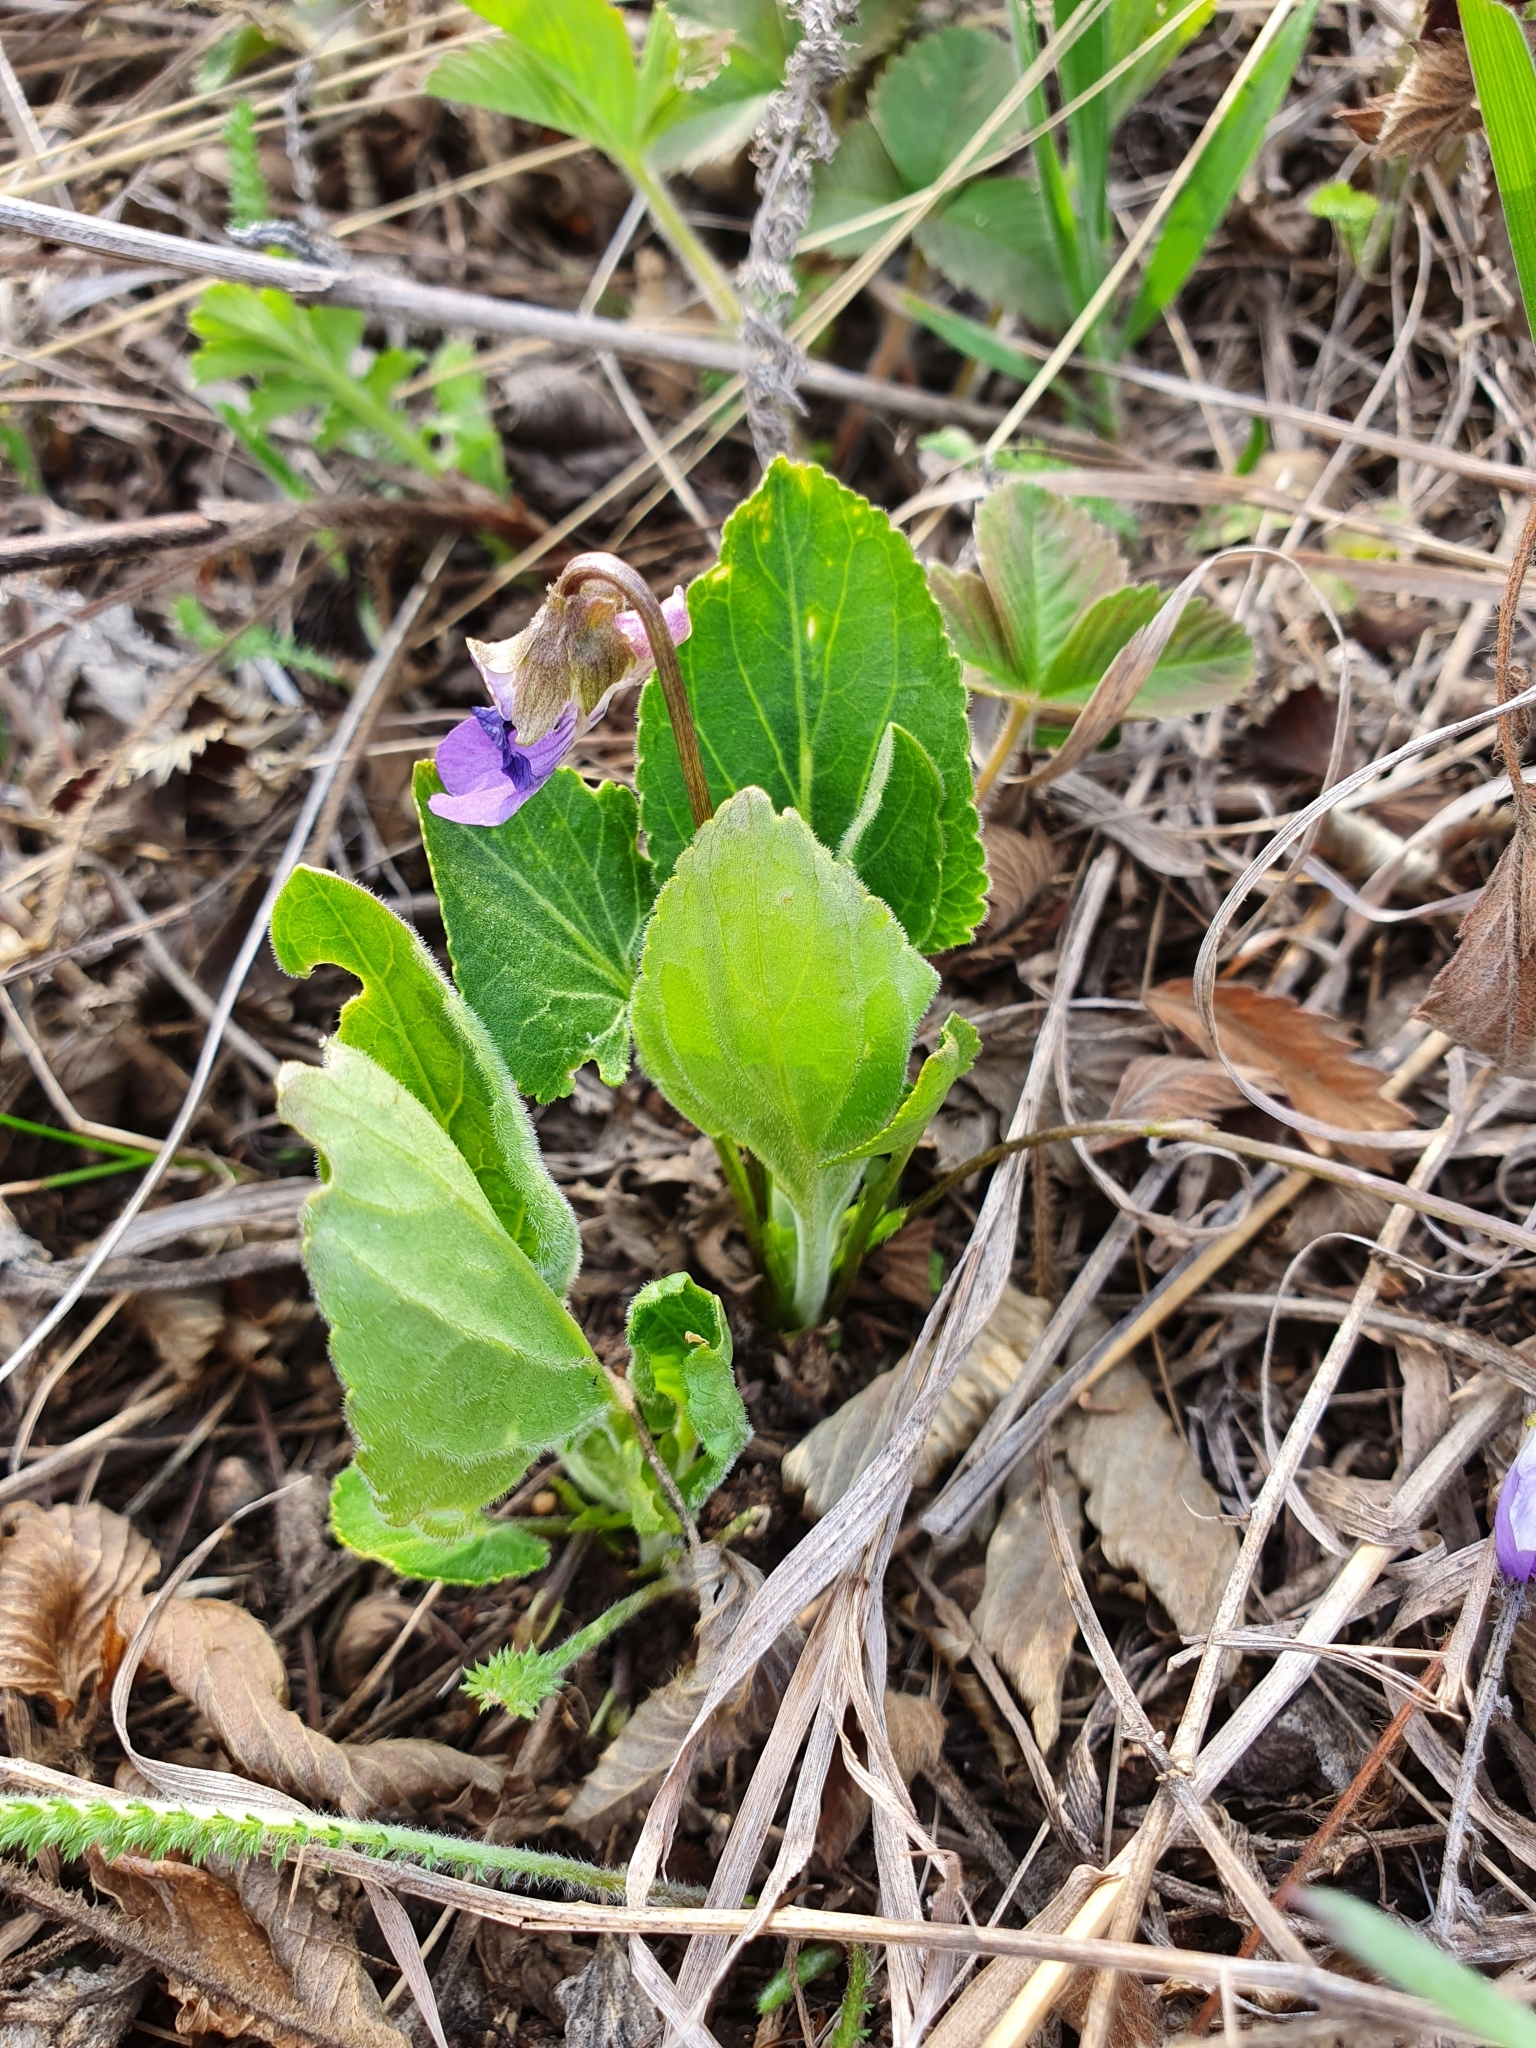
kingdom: Plantae
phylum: Tracheophyta
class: Magnoliopsida
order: Malpighiales
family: Violaceae
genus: Viola
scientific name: Viola ambigua
